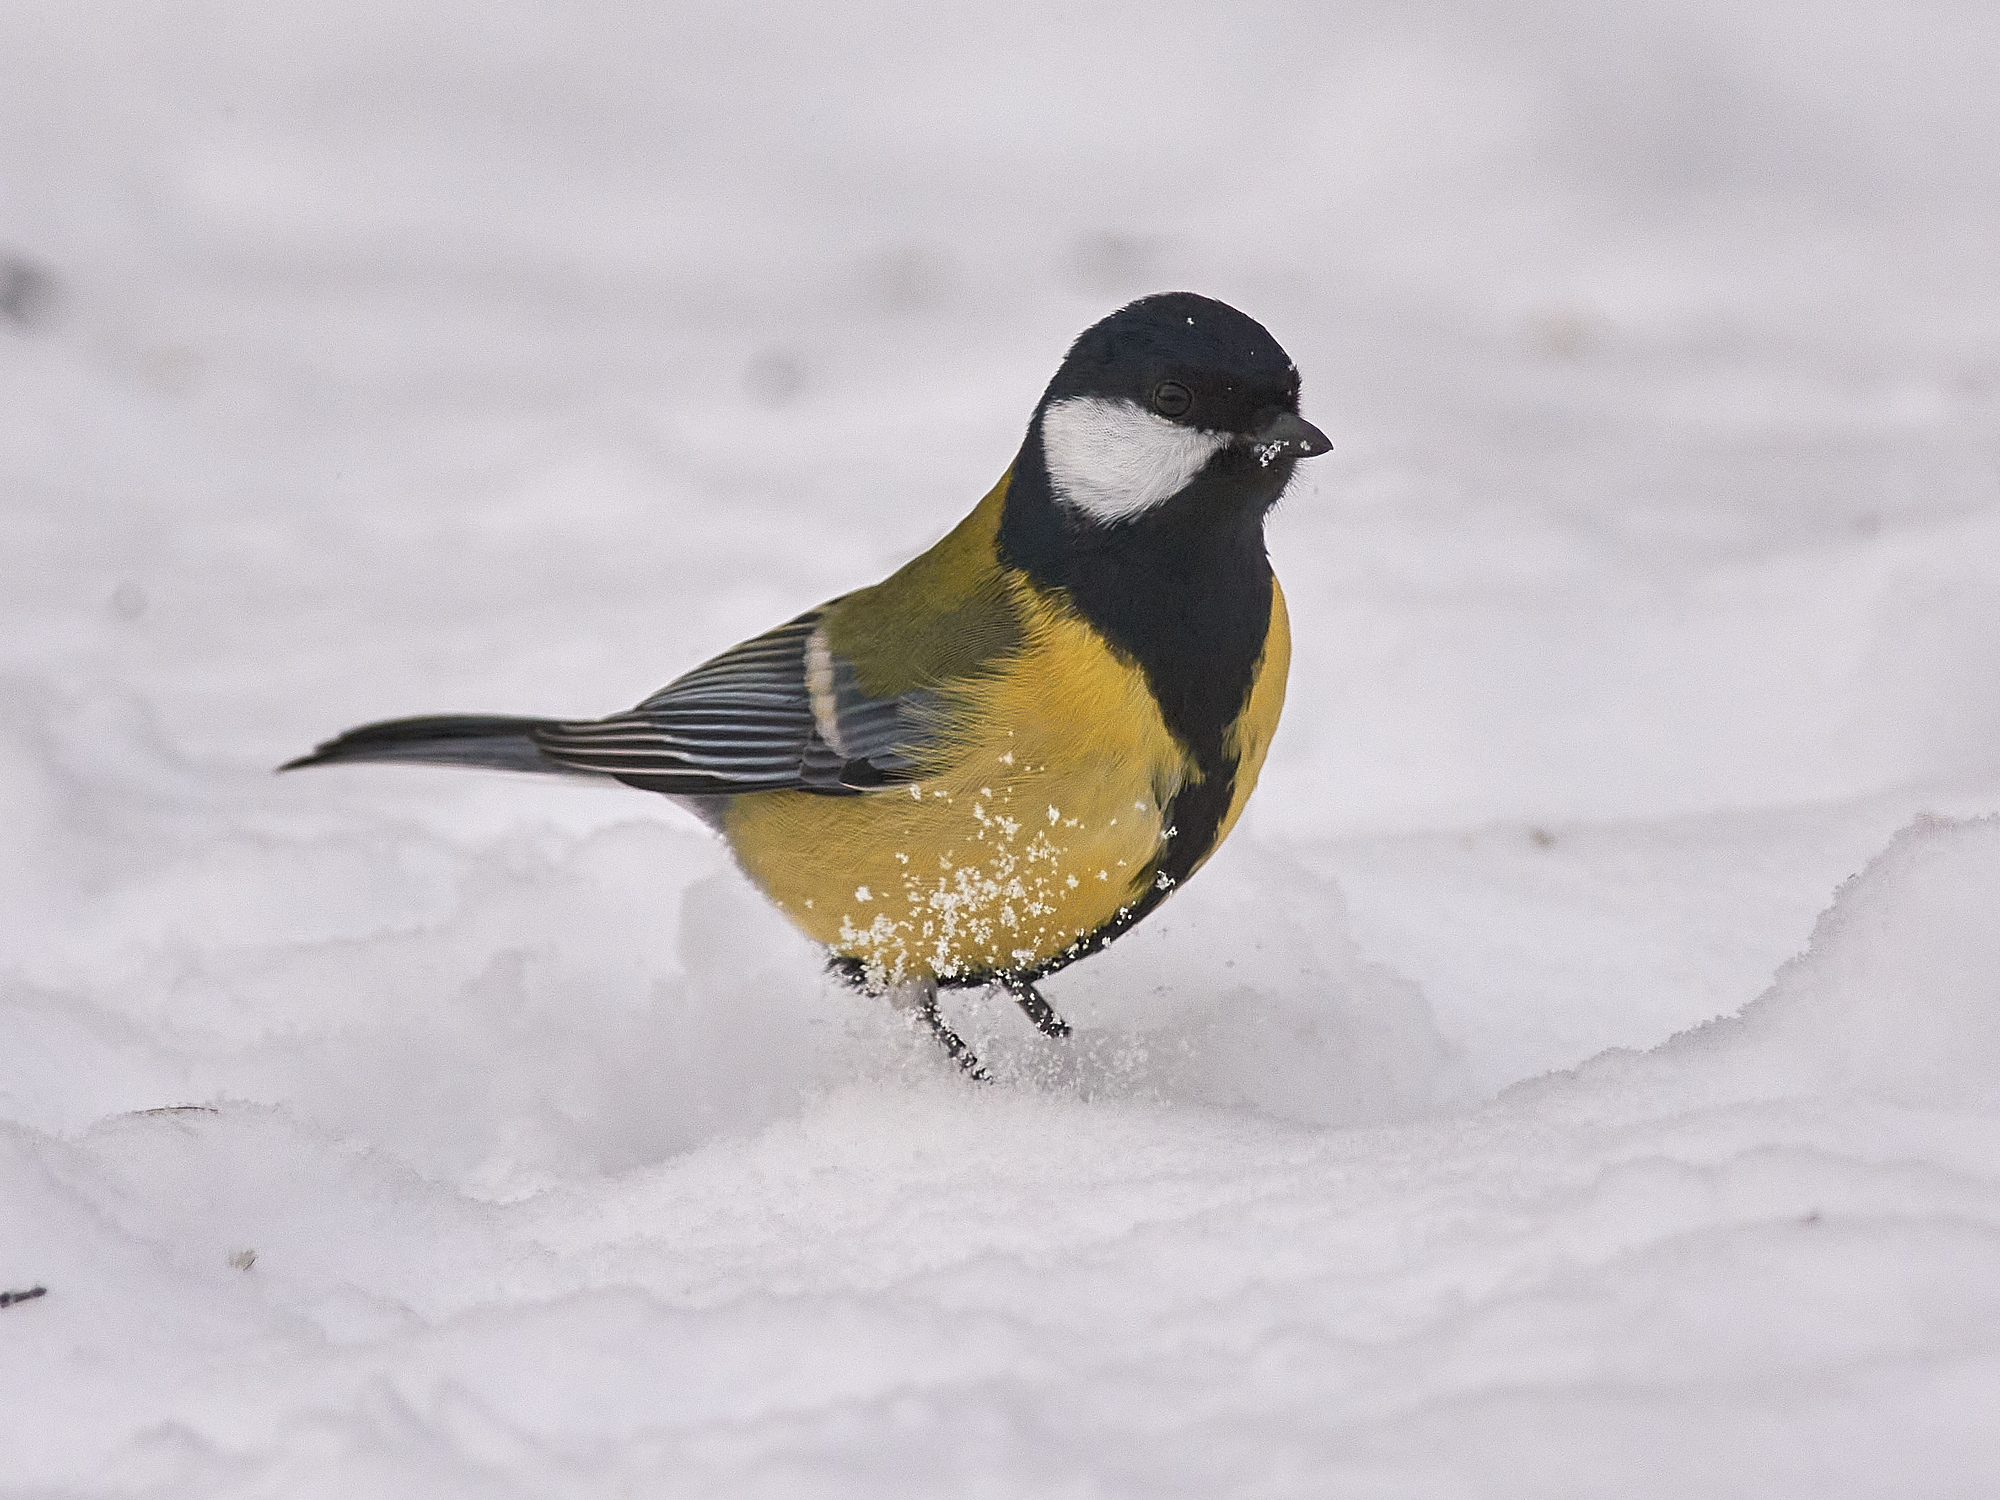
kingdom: Animalia
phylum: Chordata
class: Aves
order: Passeriformes
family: Paridae
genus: Parus
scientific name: Parus major
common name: Great tit
